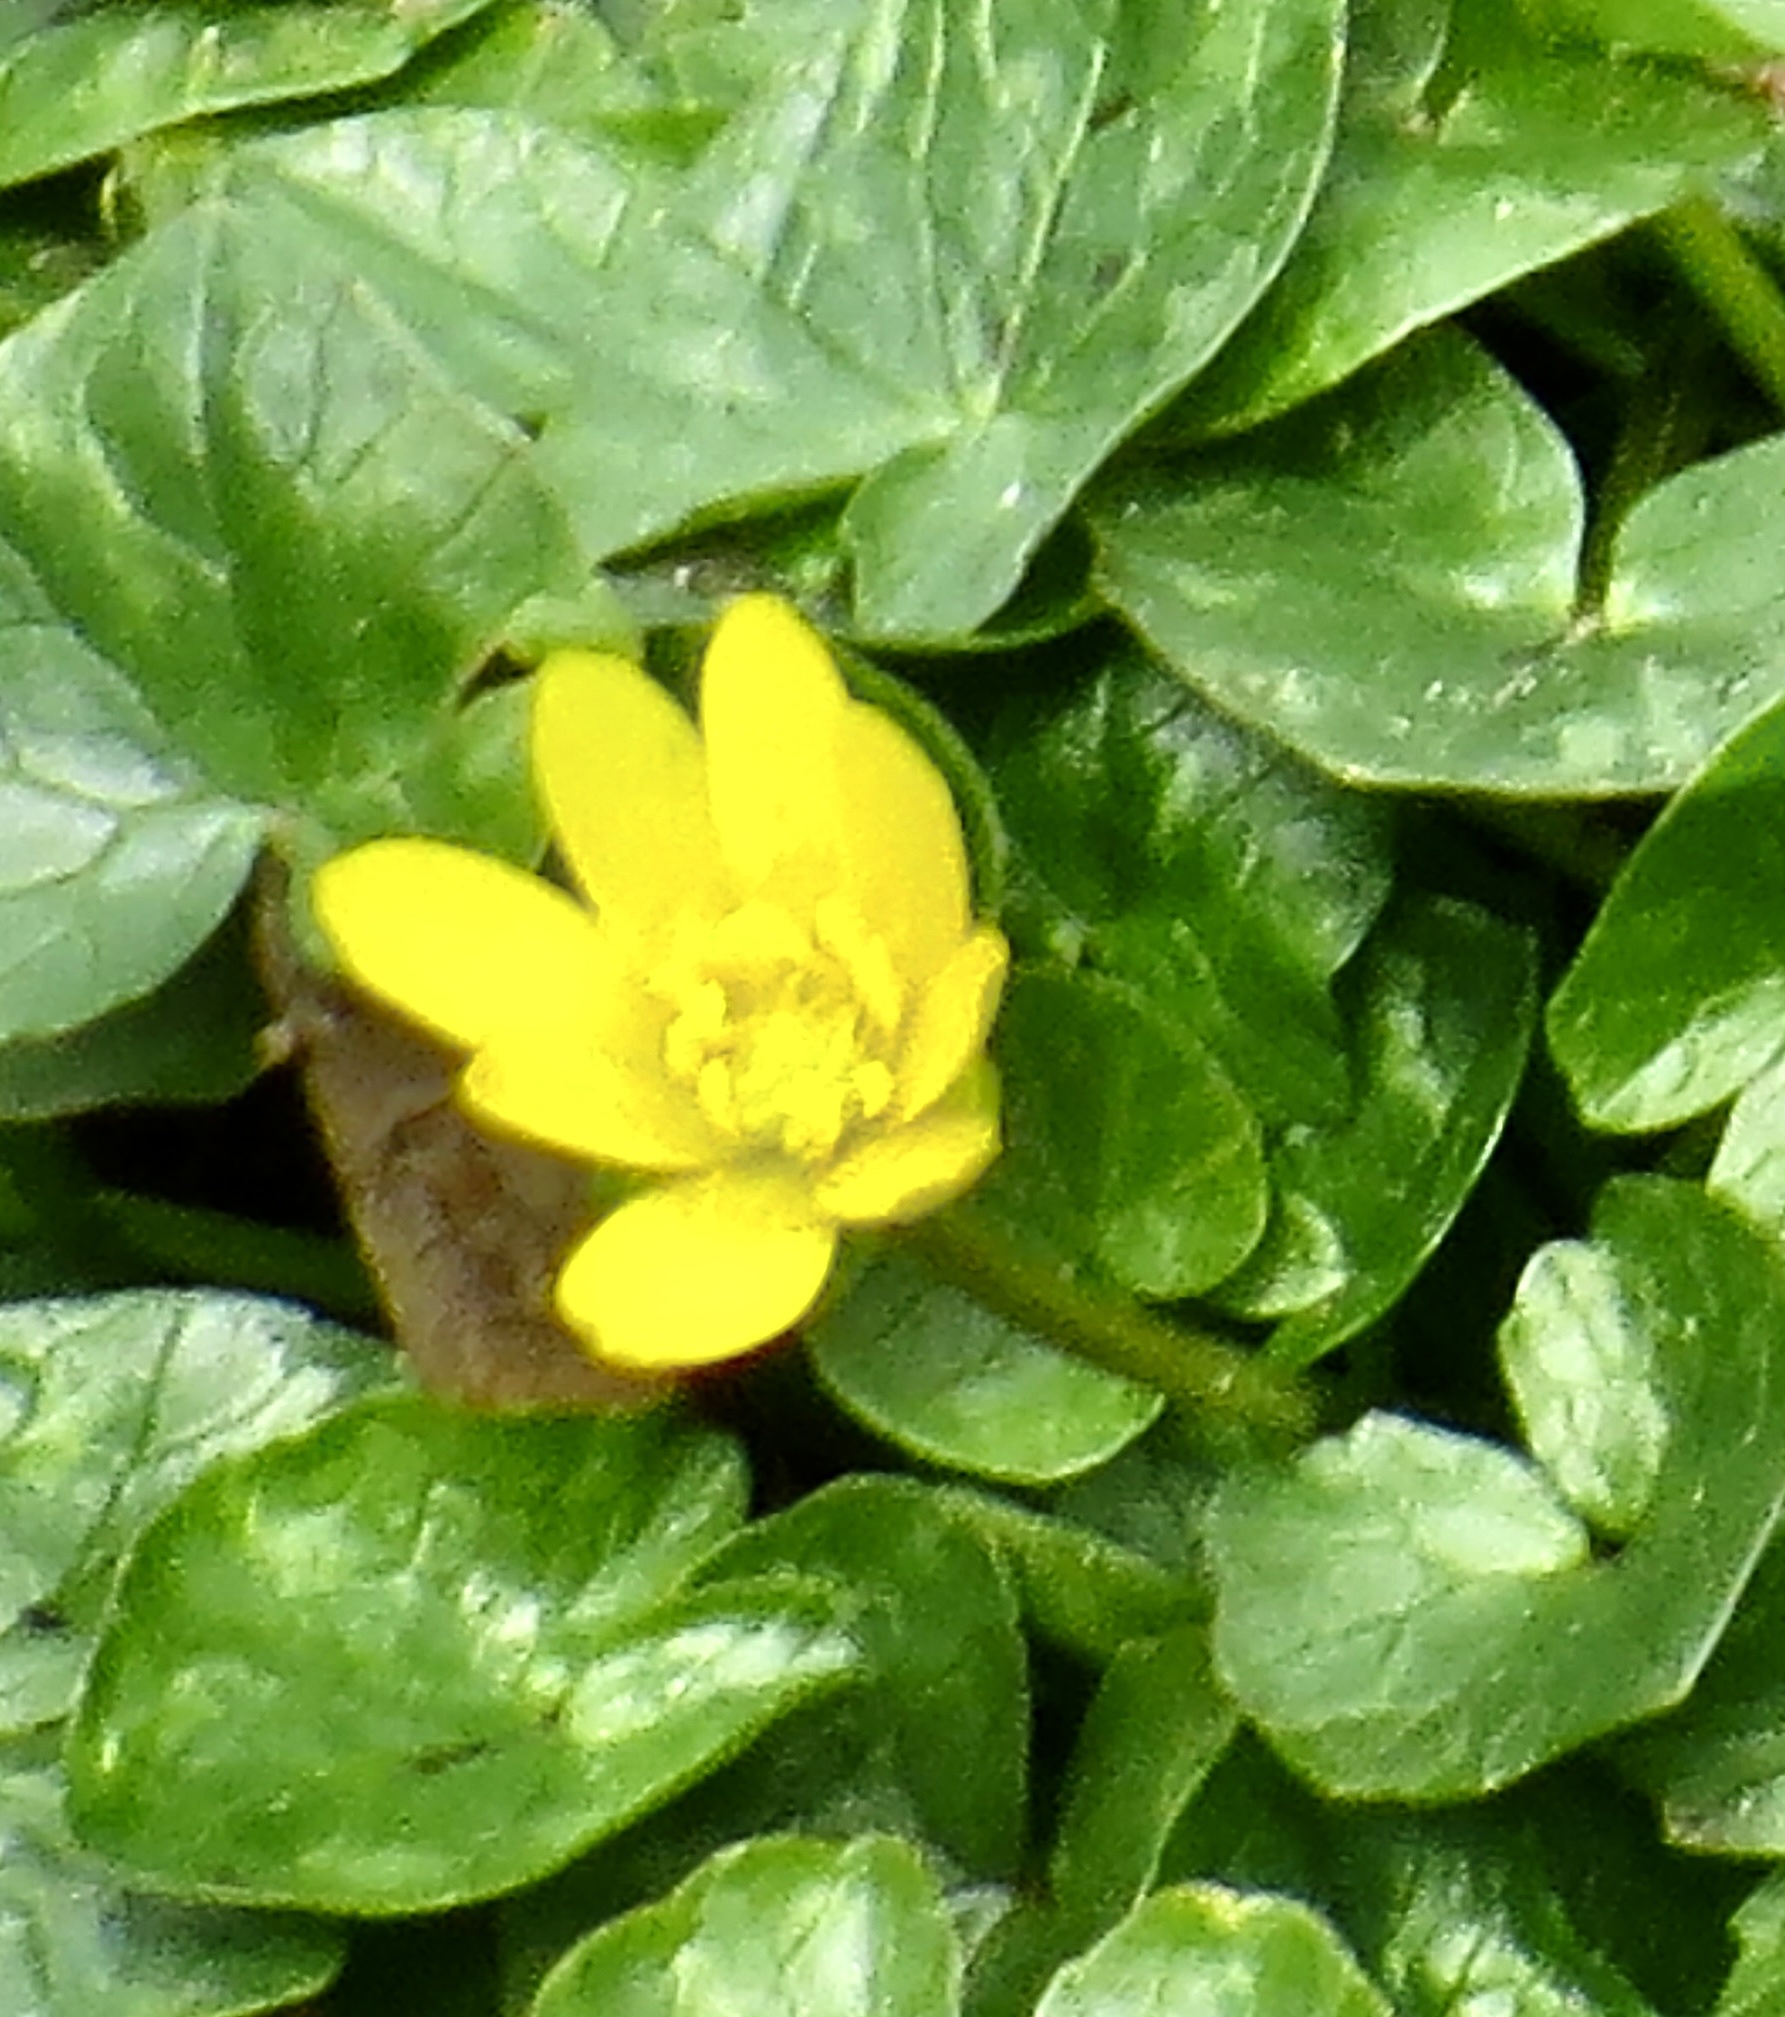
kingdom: Plantae
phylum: Tracheophyta
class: Magnoliopsida
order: Ranunculales
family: Ranunculaceae
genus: Ficaria
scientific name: Ficaria verna
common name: Lesser celandine
